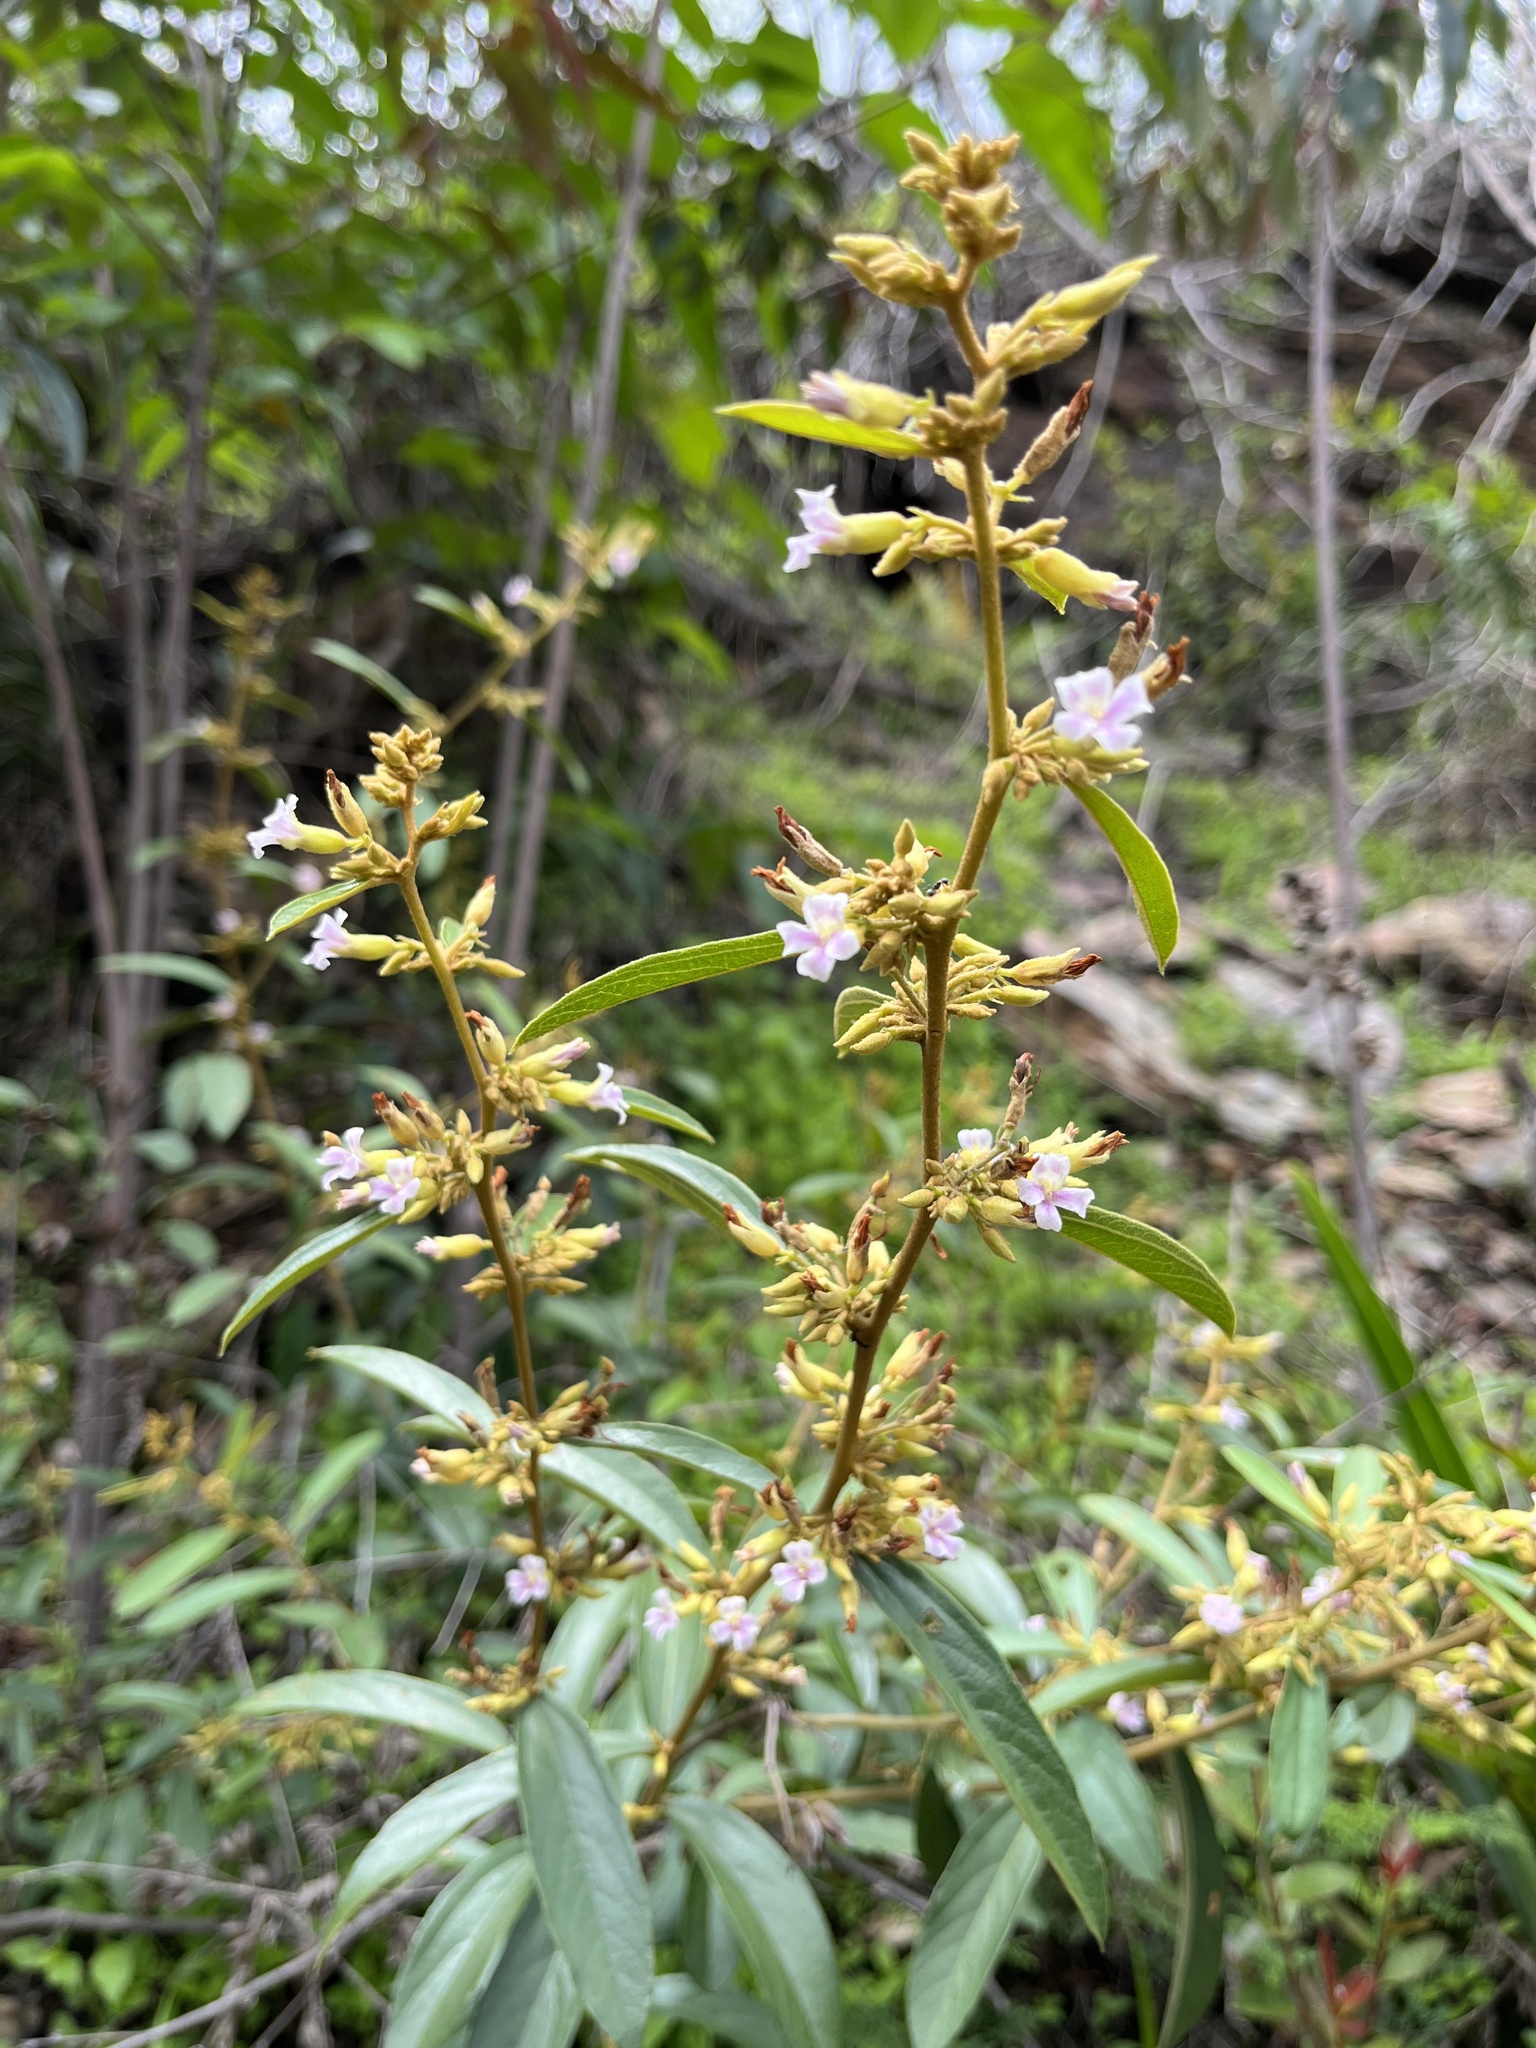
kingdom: Plantae
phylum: Tracheophyta
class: Magnoliopsida
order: Malvales
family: Malvaceae
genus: Helicteres
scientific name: Helicteres angustifolia
